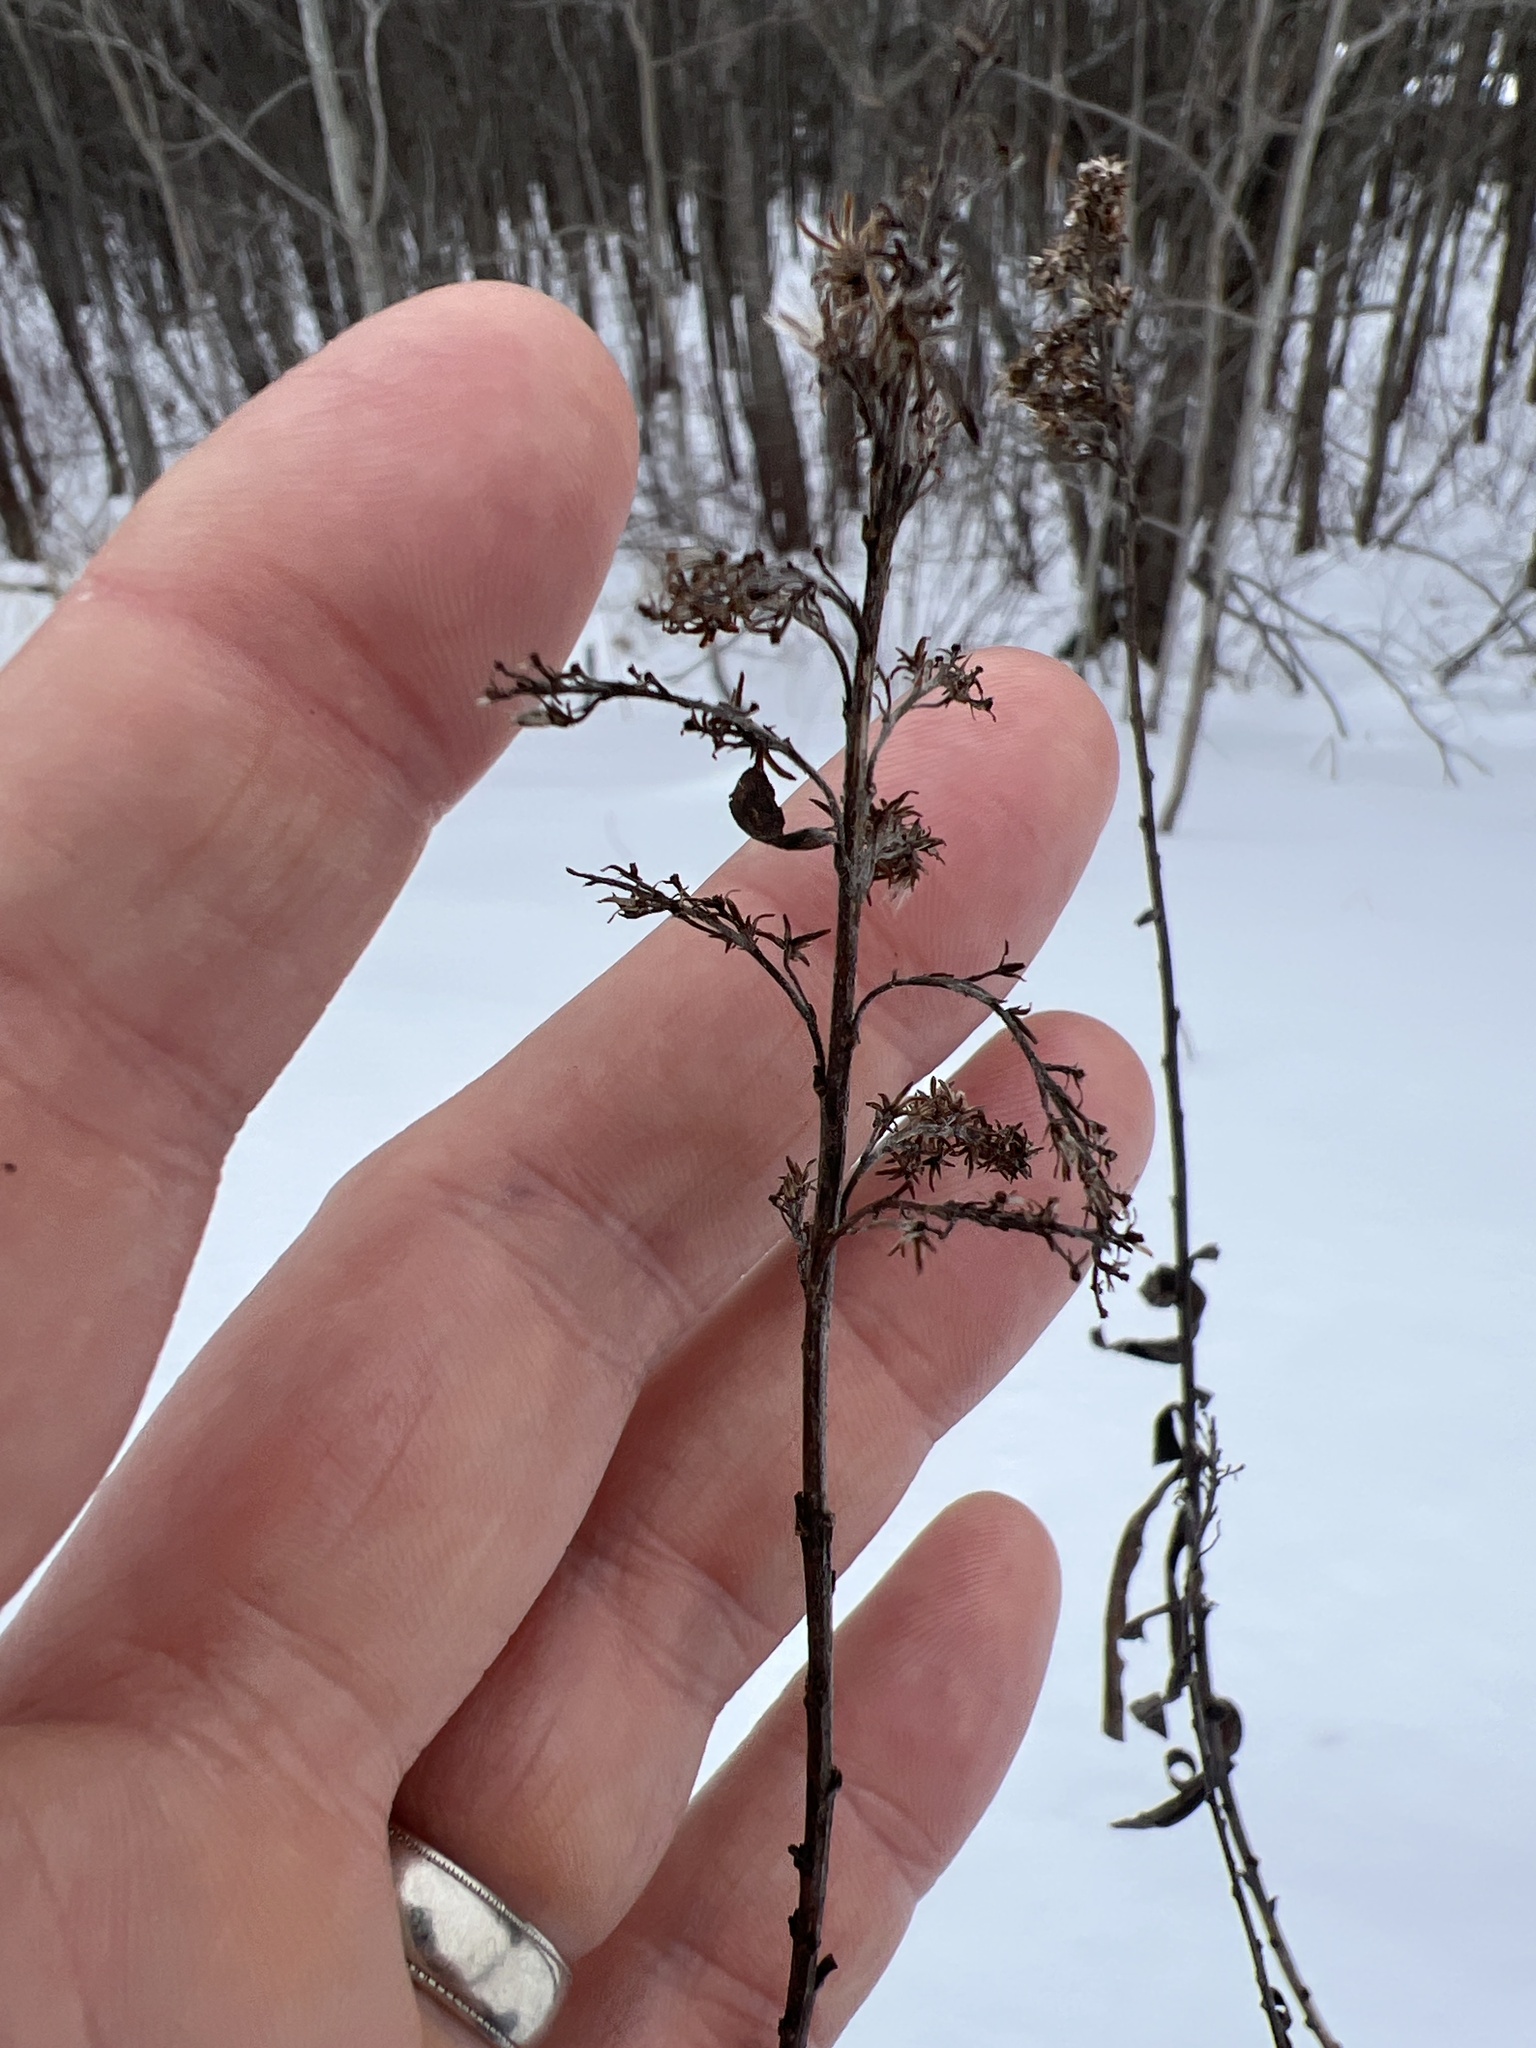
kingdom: Animalia
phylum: Arthropoda
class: Insecta
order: Diptera
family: Tephritidae
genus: Eurosta
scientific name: Eurosta solidaginis
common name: Goldenrod gall fly
